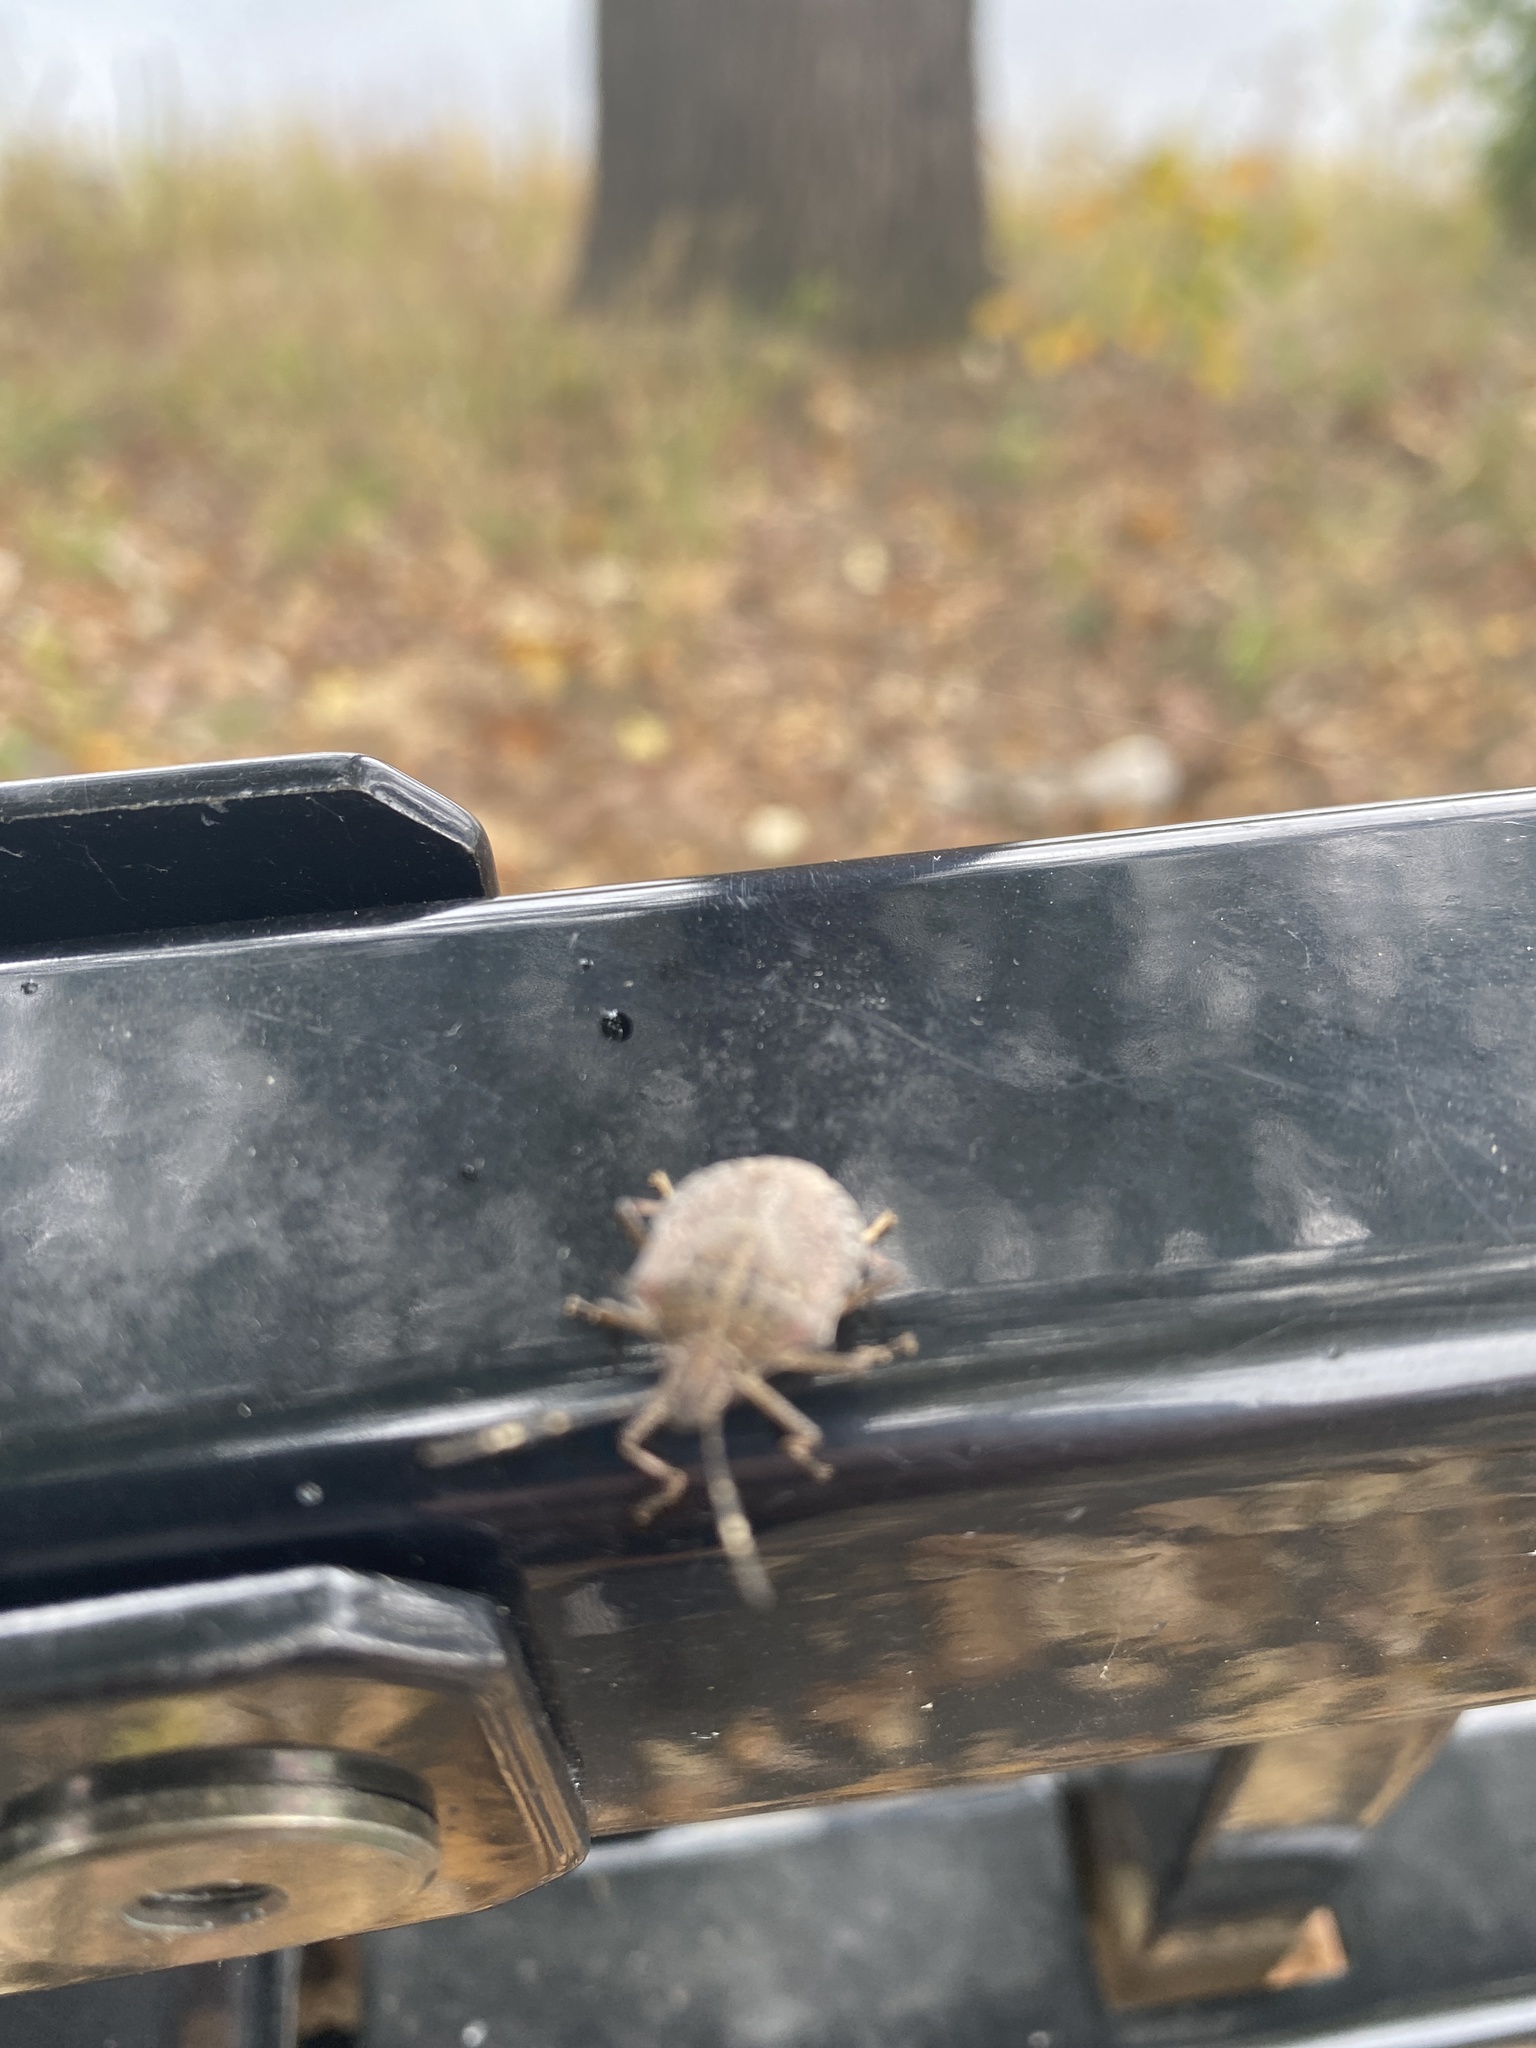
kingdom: Animalia
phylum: Arthropoda
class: Insecta
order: Hemiptera
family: Pentatomidae
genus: Halyomorpha
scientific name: Halyomorpha halys
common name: Brown marmorated stink bug
